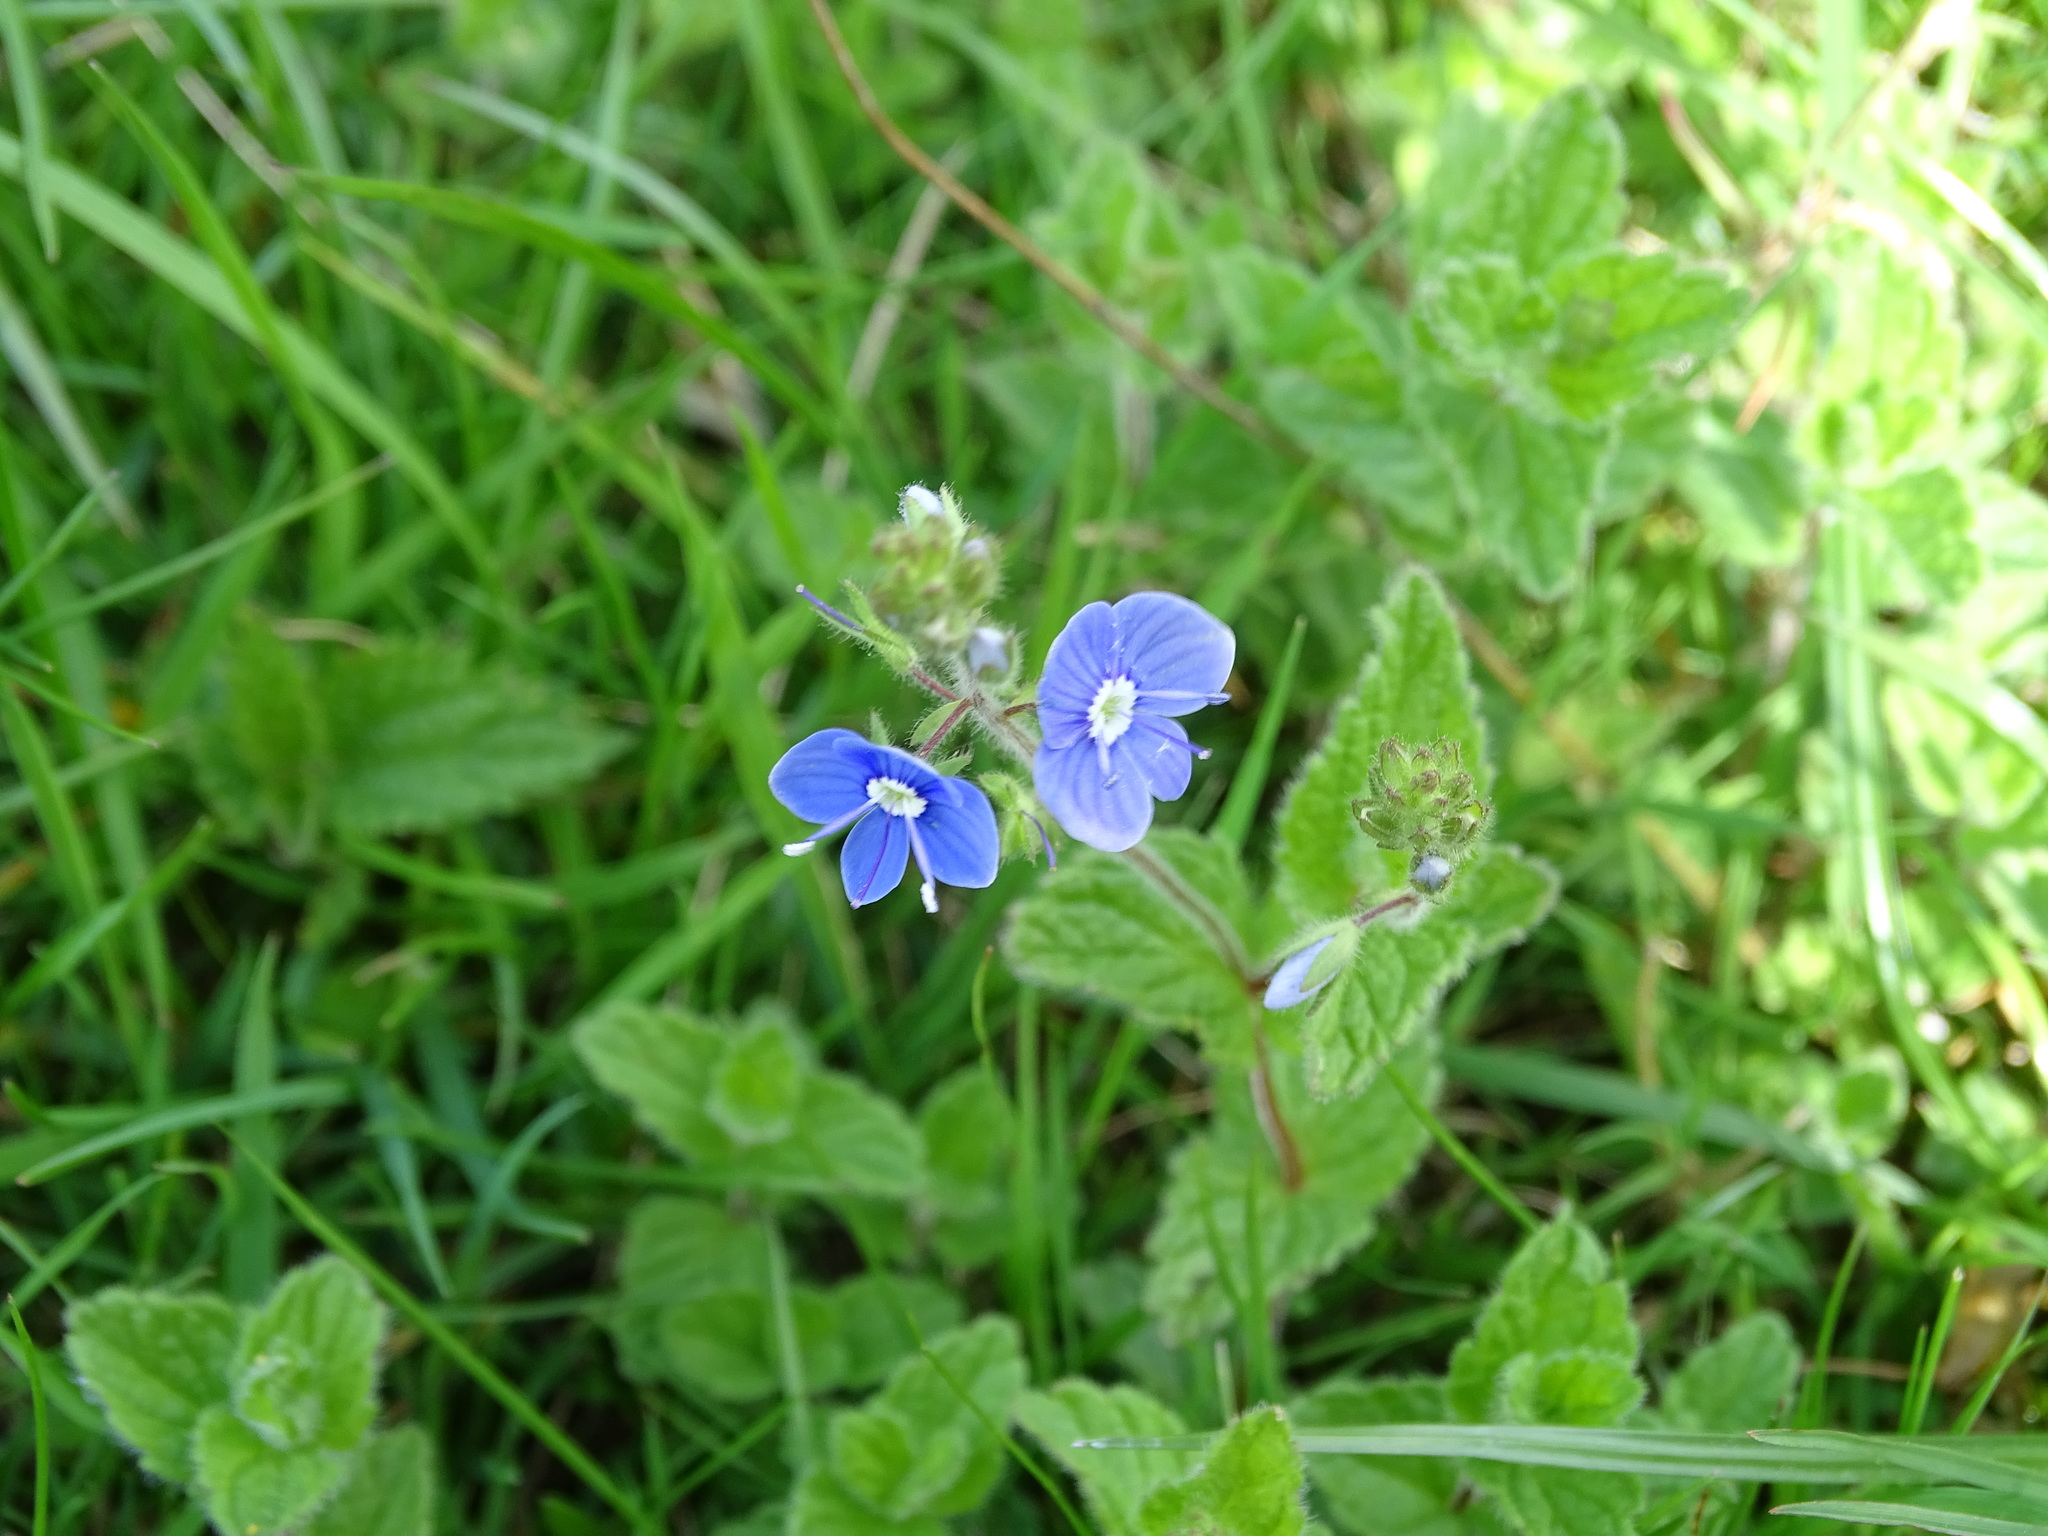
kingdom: Plantae
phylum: Tracheophyta
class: Magnoliopsida
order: Lamiales
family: Plantaginaceae
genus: Veronica
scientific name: Veronica chamaedrys
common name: Germander speedwell
